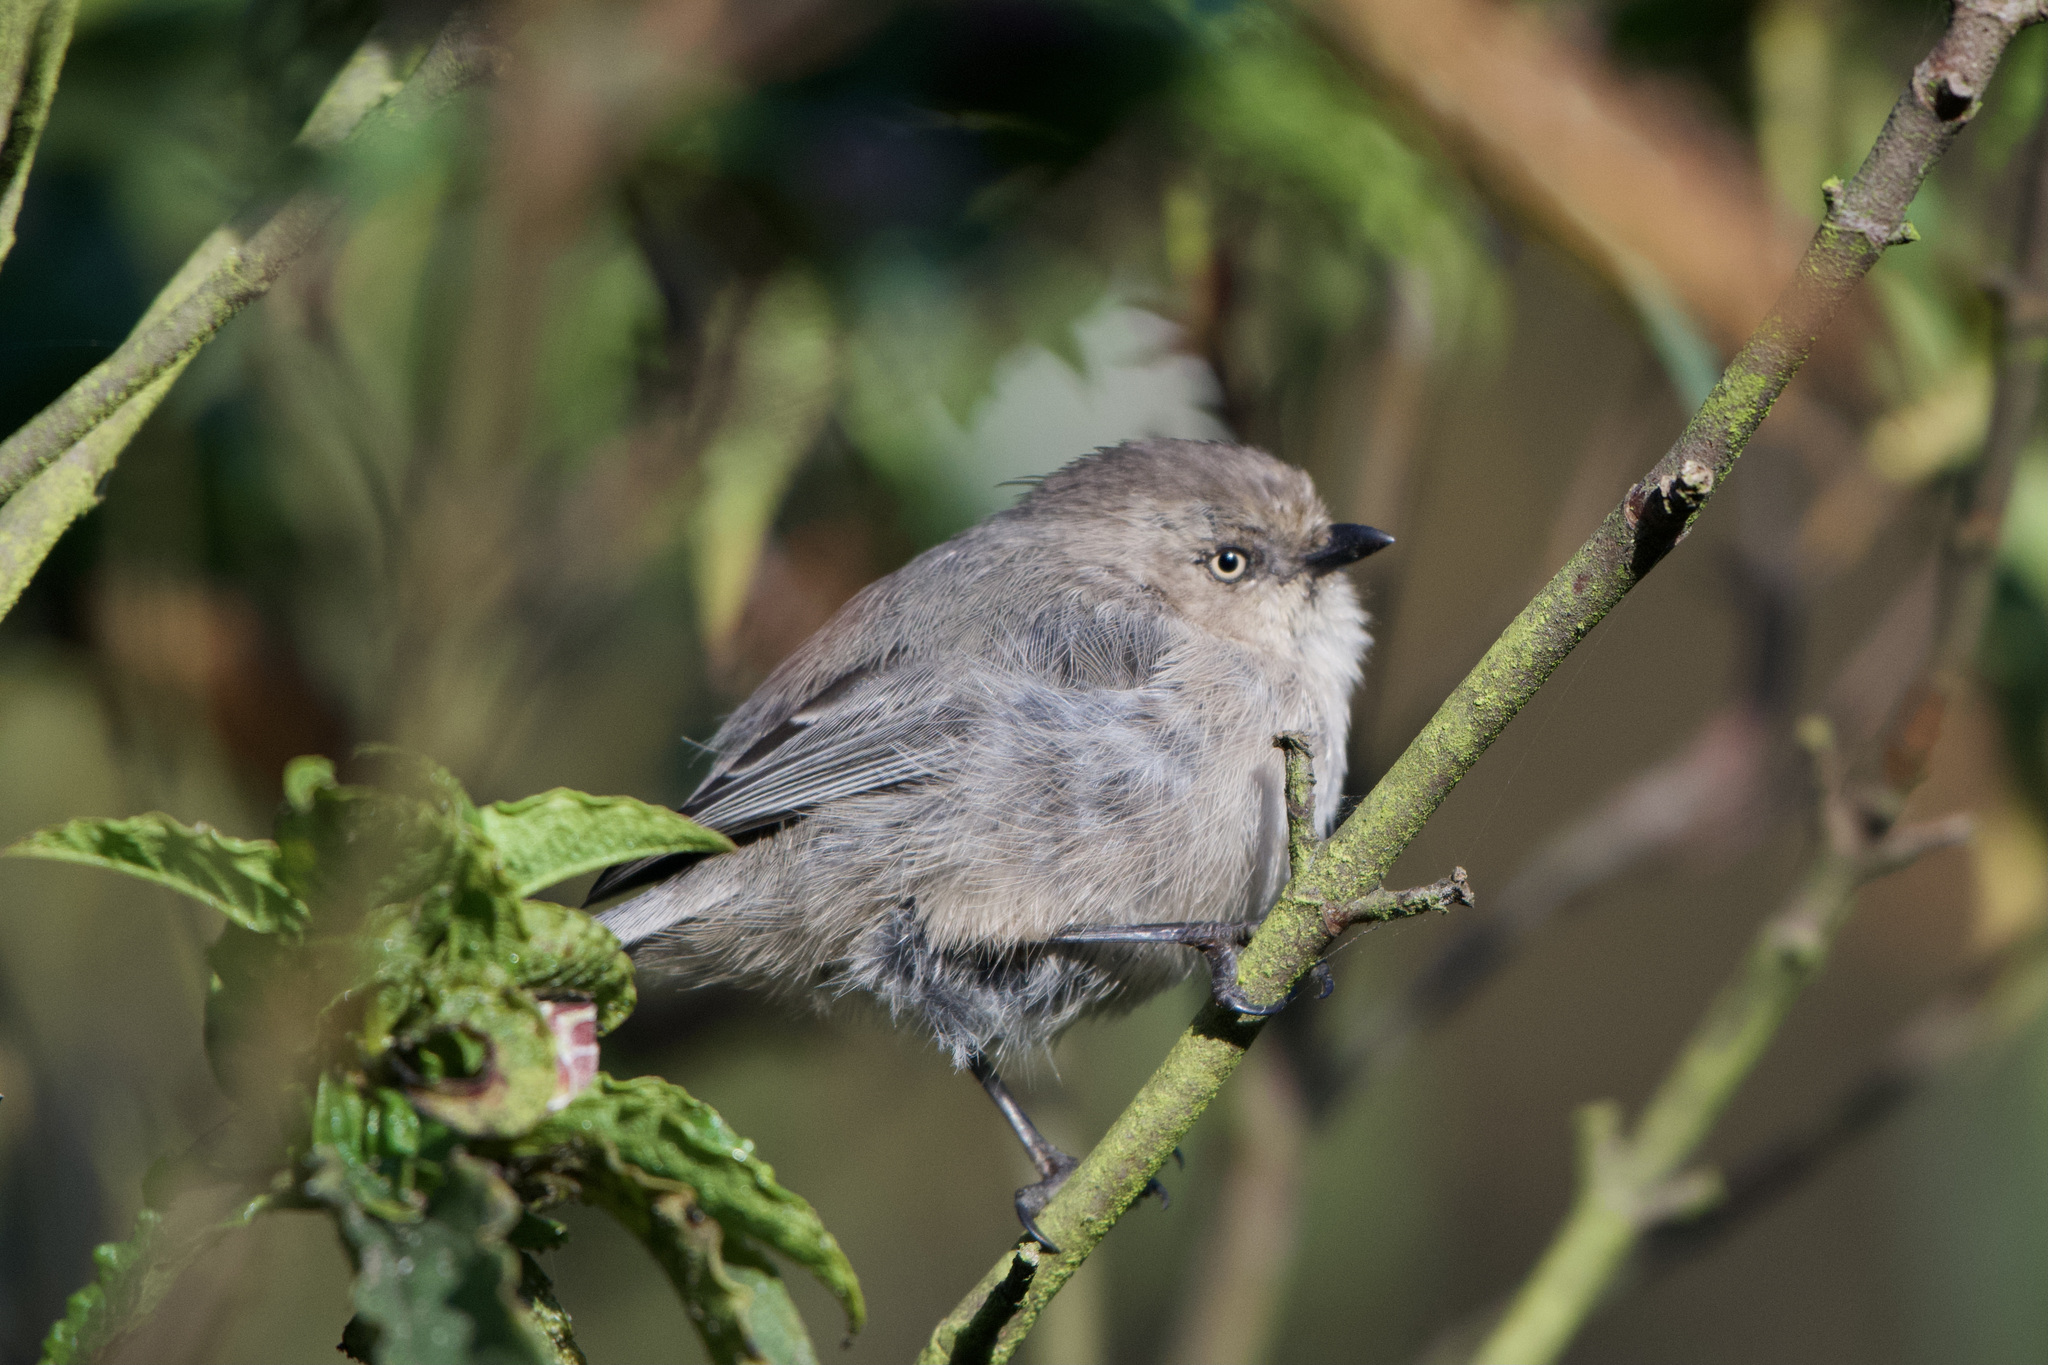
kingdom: Animalia
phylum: Chordata
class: Aves
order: Passeriformes
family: Aegithalidae
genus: Psaltriparus
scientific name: Psaltriparus minimus
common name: American bushtit
